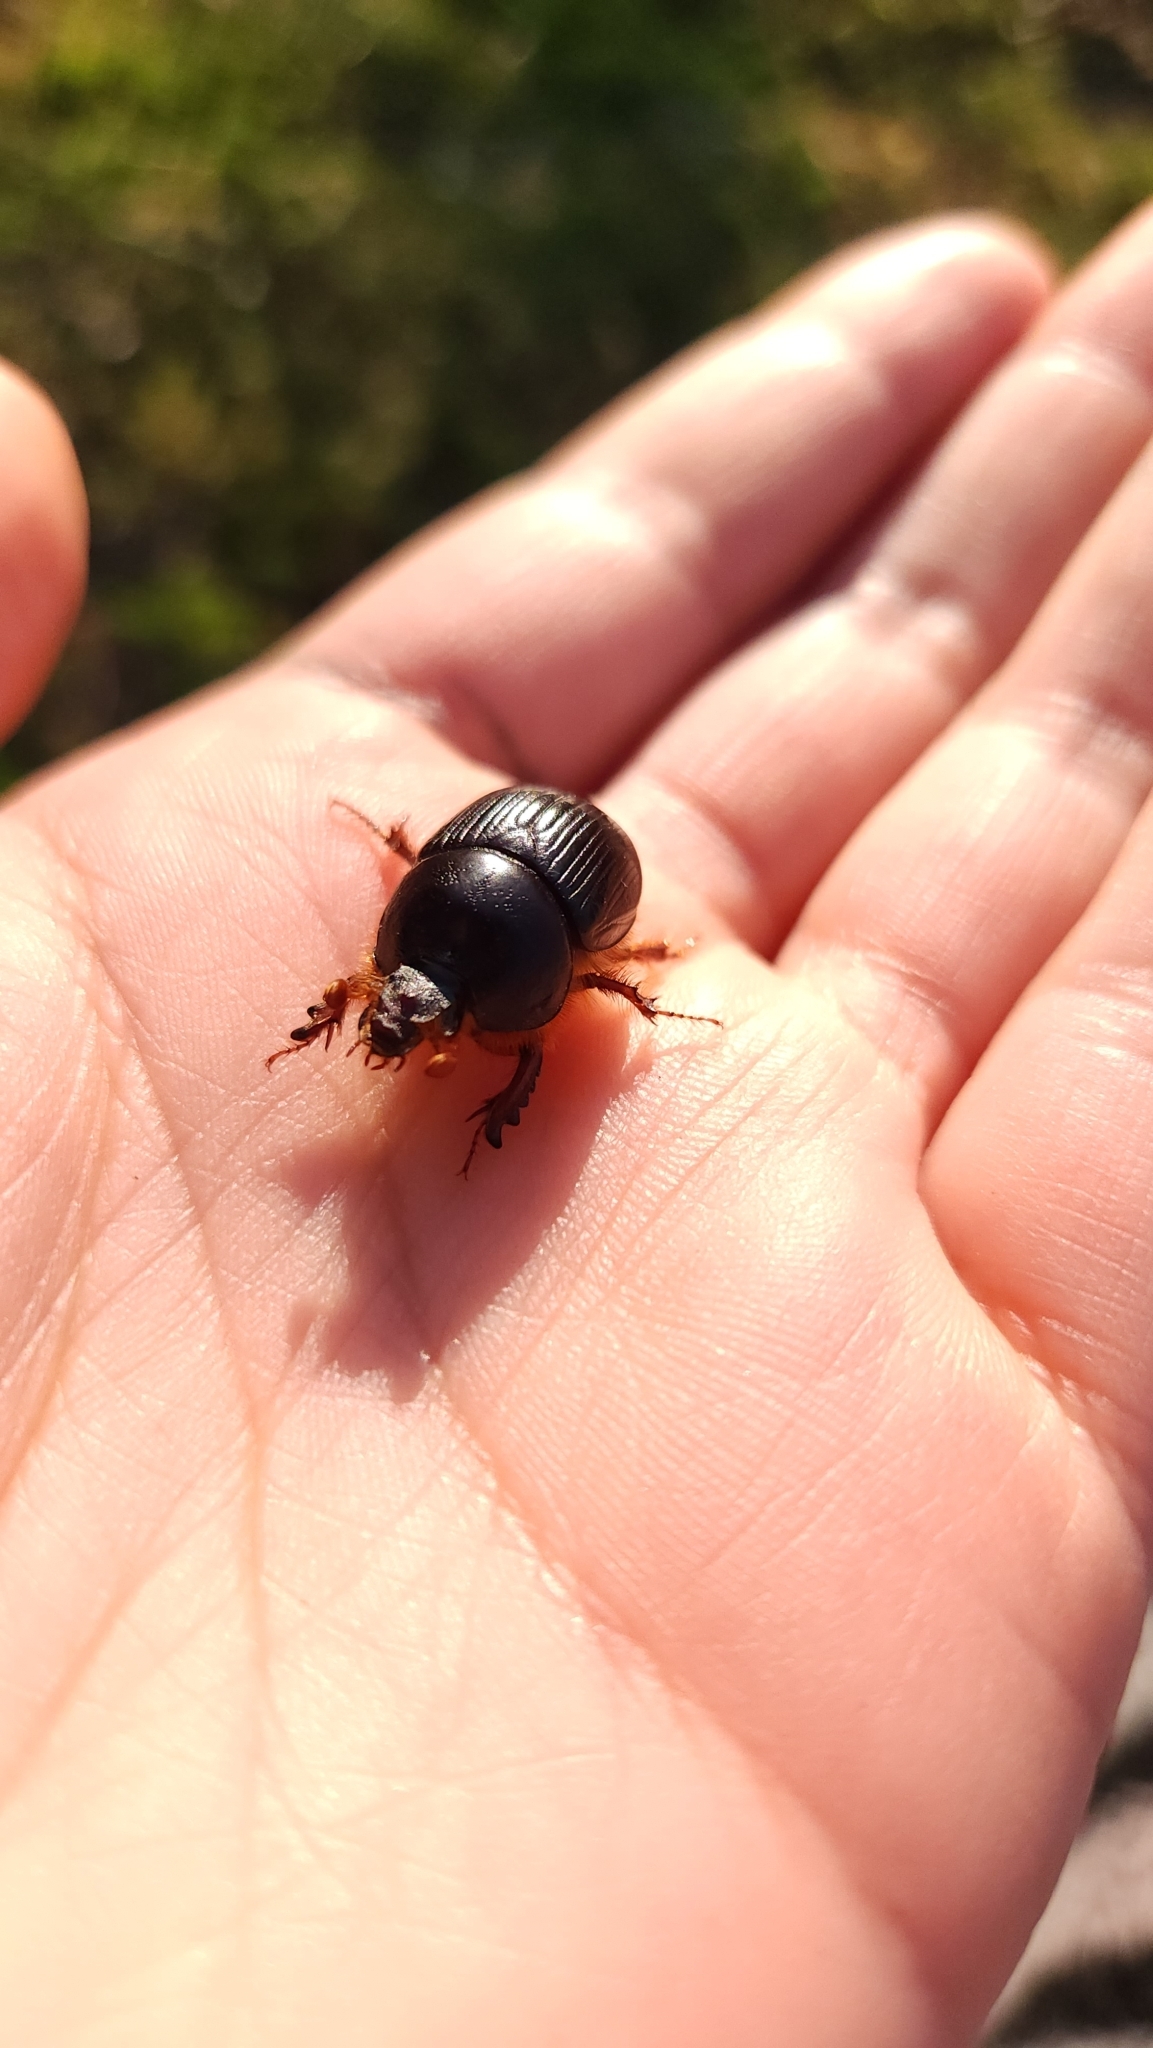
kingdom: Animalia
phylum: Arthropoda
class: Insecta
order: Coleoptera
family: Geotrupidae
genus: Bolborhinum
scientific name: Bolborhinum tubericeps
